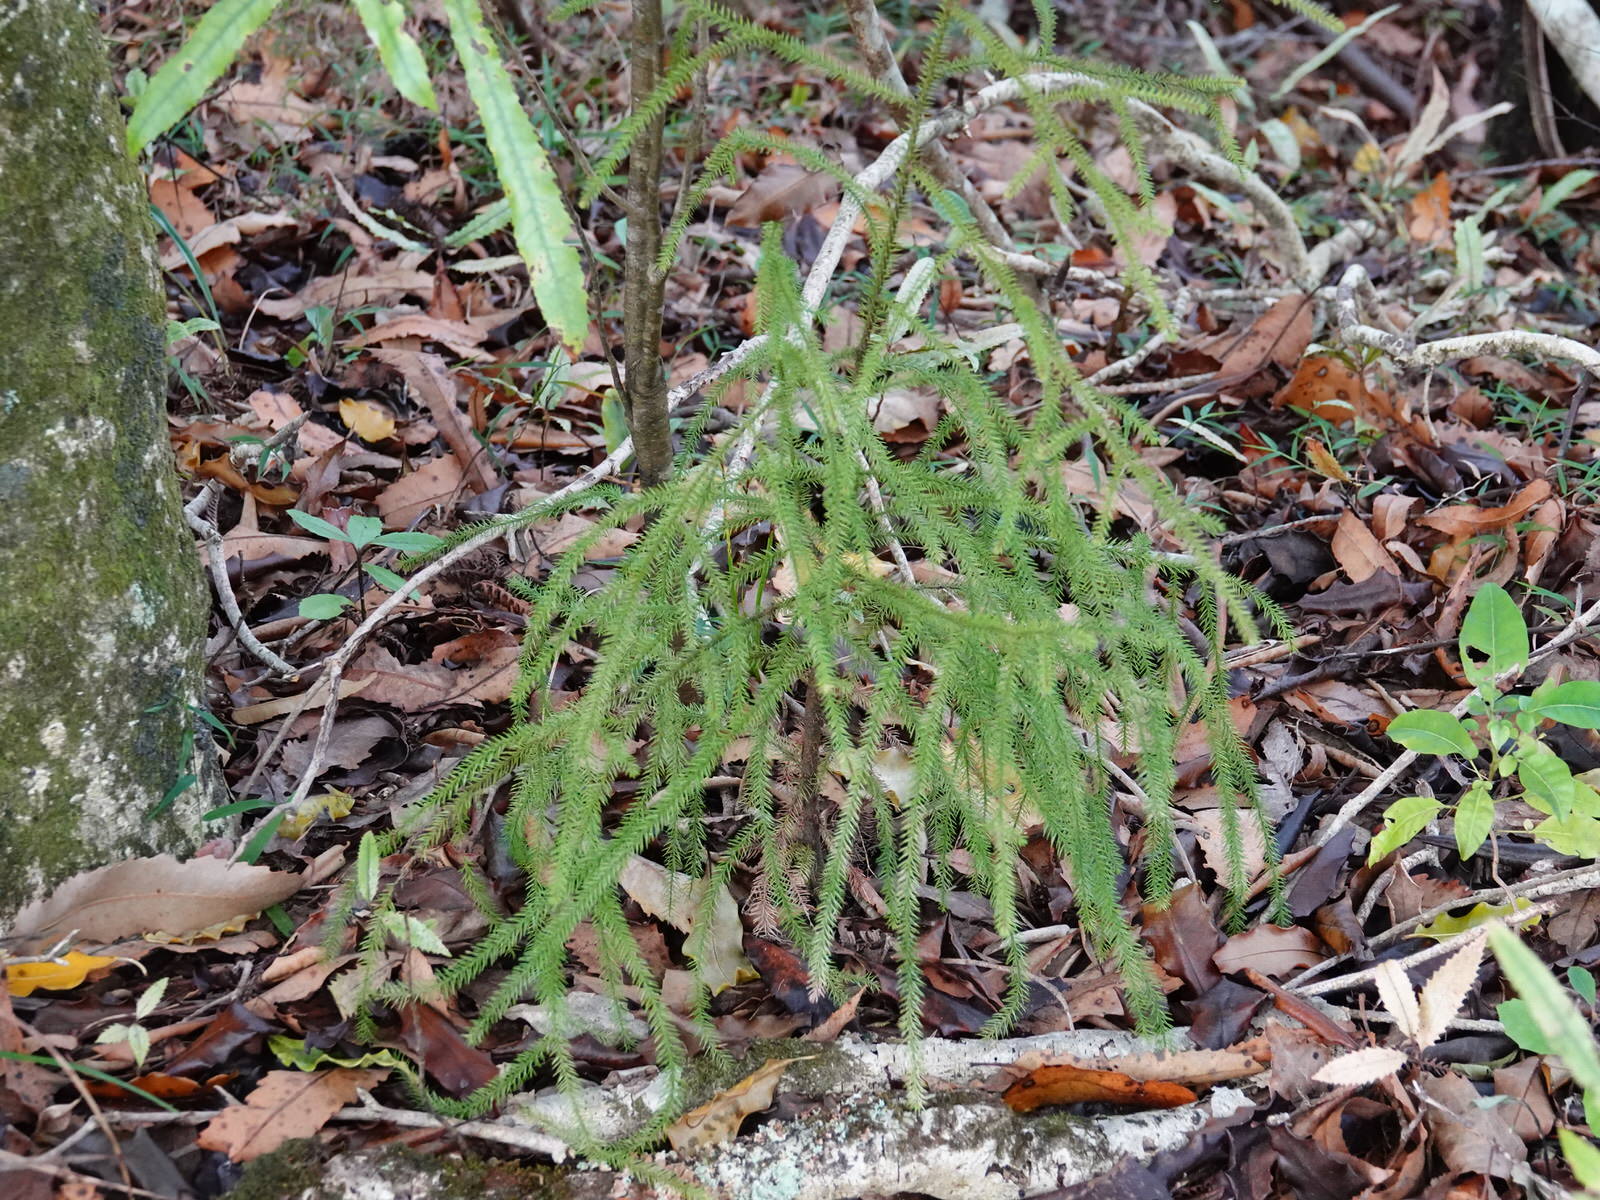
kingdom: Plantae
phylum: Tracheophyta
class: Pinopsida
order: Pinales
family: Podocarpaceae
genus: Dacrydium
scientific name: Dacrydium cupressinum
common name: Red pine
